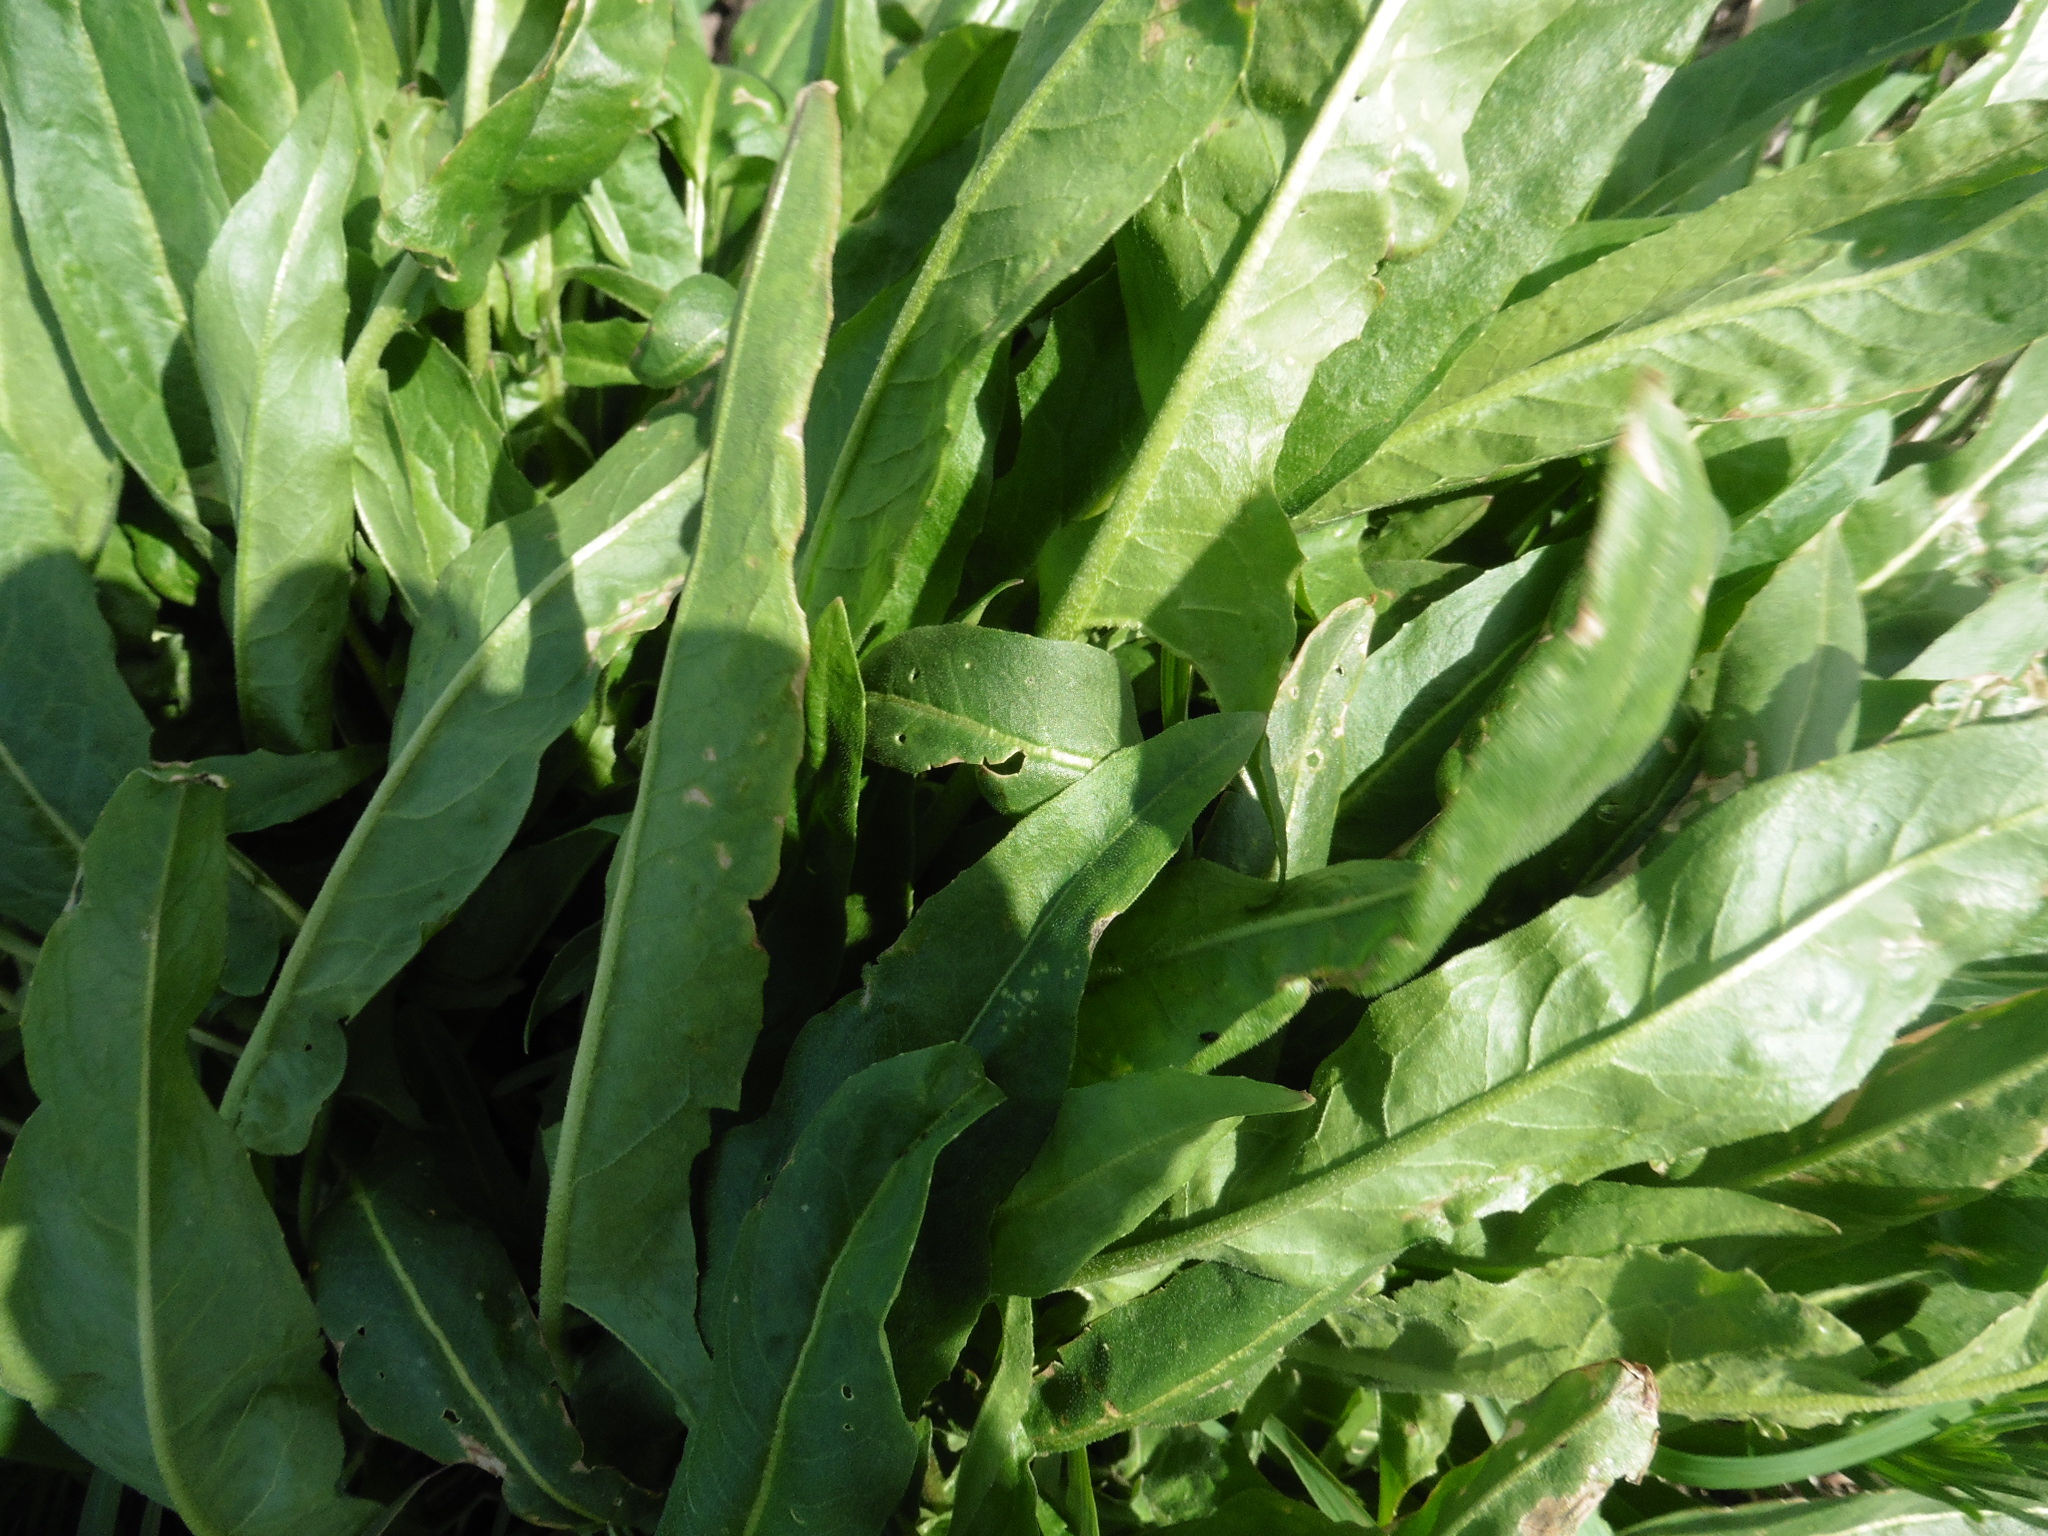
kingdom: Plantae
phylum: Tracheophyta
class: Magnoliopsida
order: Brassicales
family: Brassicaceae
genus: Bunias
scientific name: Bunias orientalis
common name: Warty-cabbage
